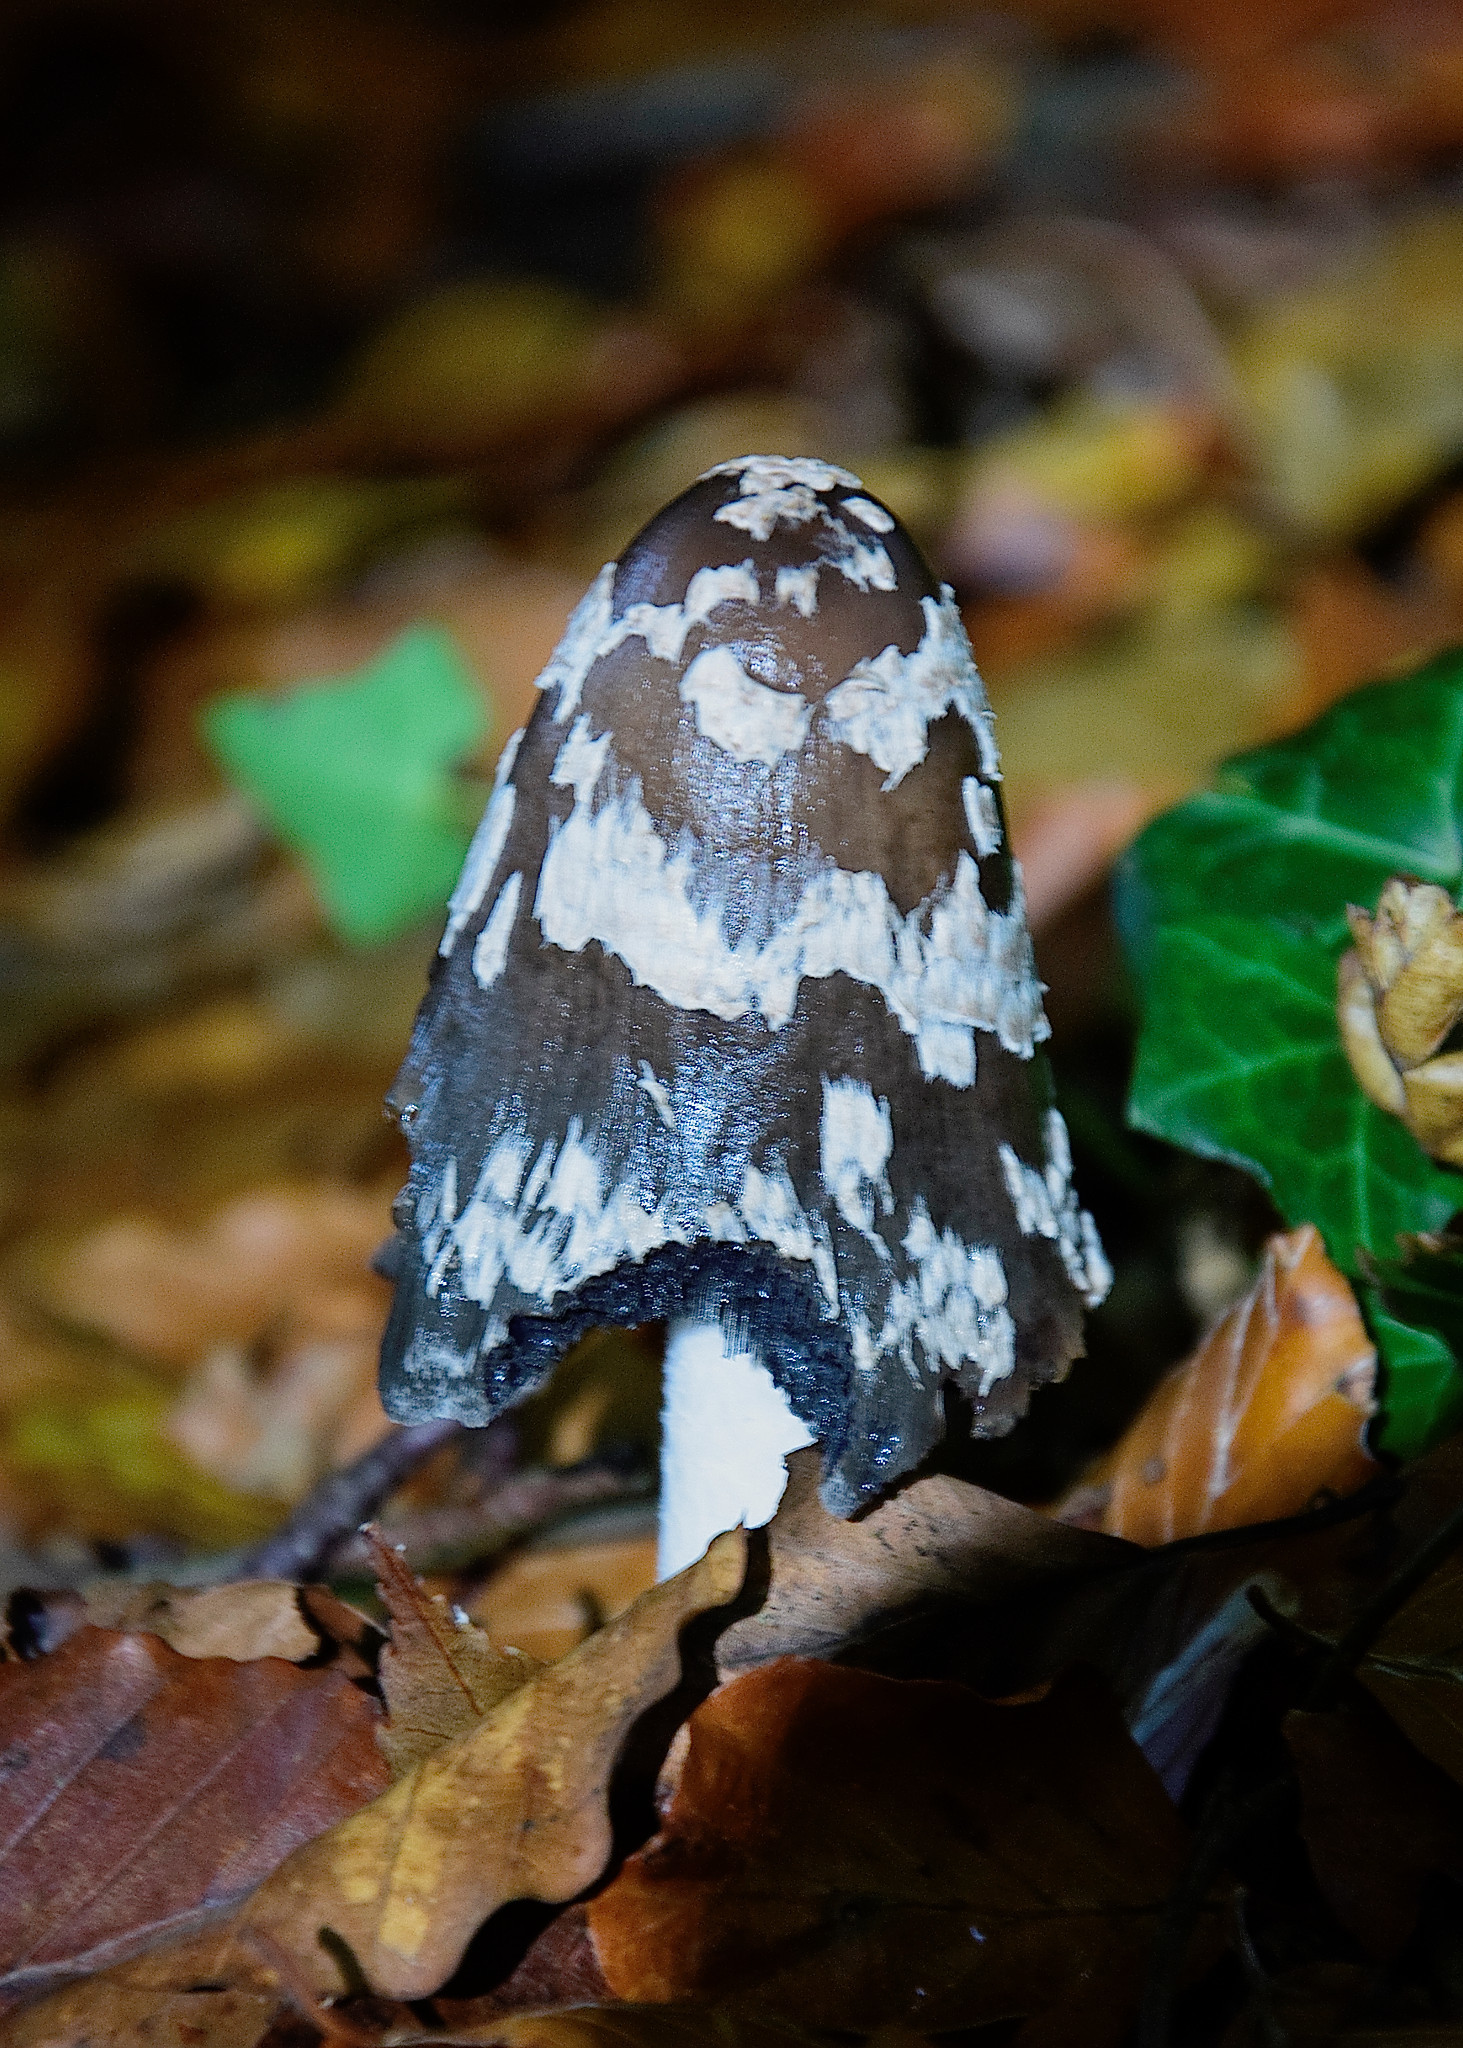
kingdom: Fungi
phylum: Basidiomycota
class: Agaricomycetes
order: Agaricales
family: Psathyrellaceae
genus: Coprinopsis
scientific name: Coprinopsis picacea
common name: Magpie inkcap
